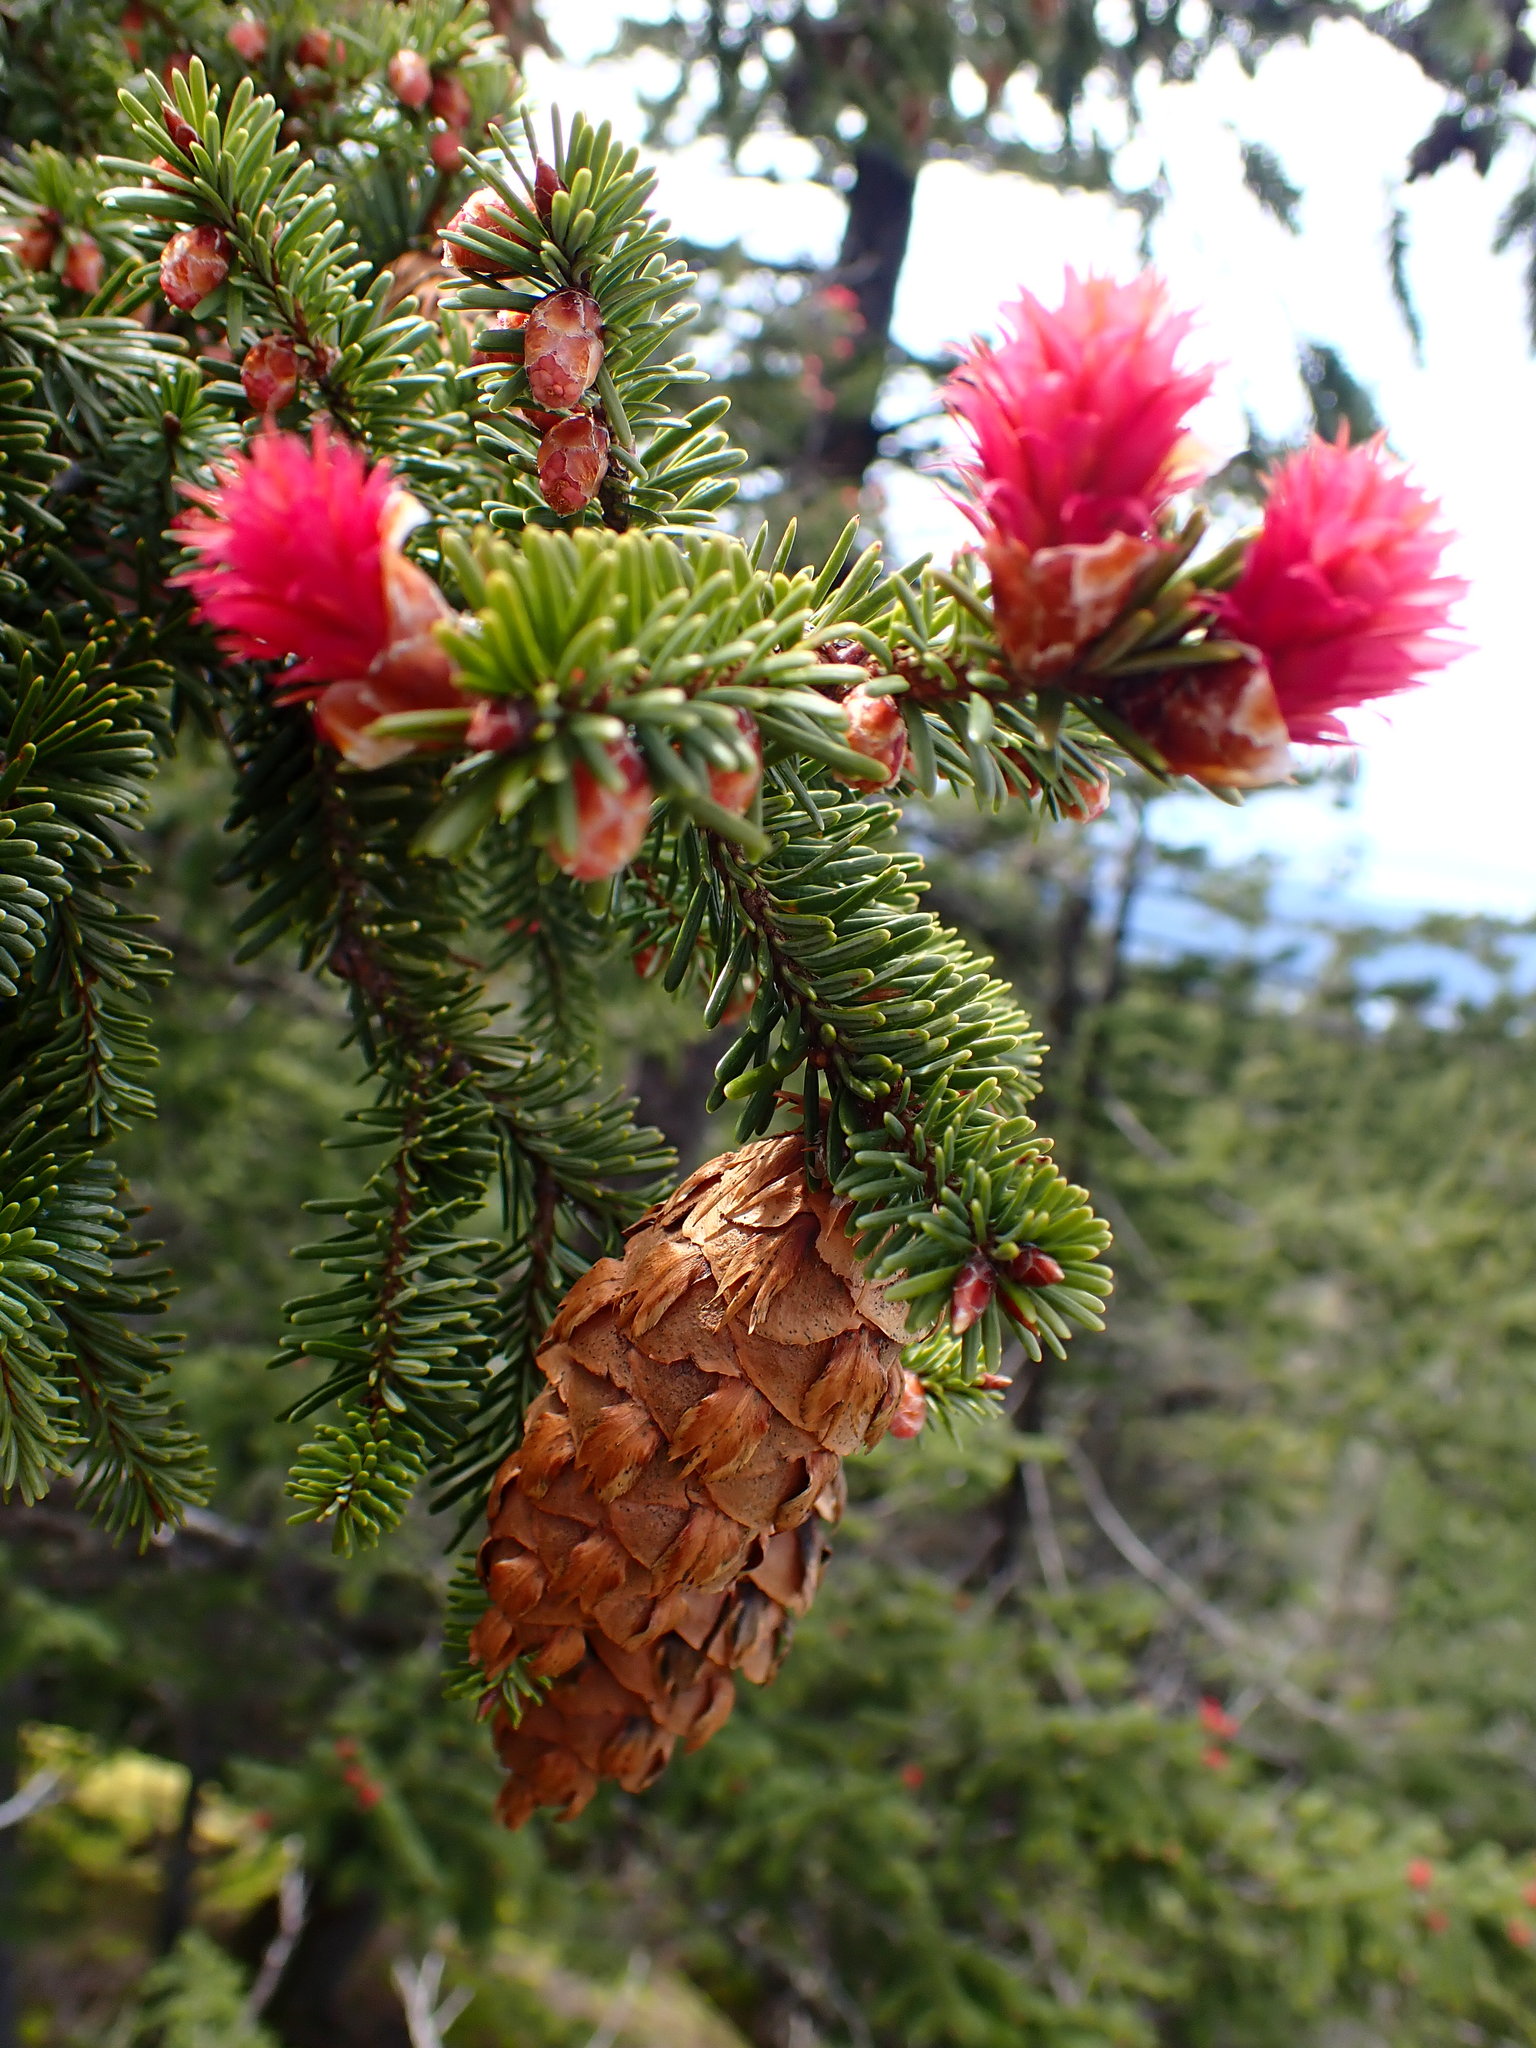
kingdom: Plantae
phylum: Tracheophyta
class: Pinopsida
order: Pinales
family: Pinaceae
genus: Pseudotsuga
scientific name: Pseudotsuga menziesii
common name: Douglas fir
